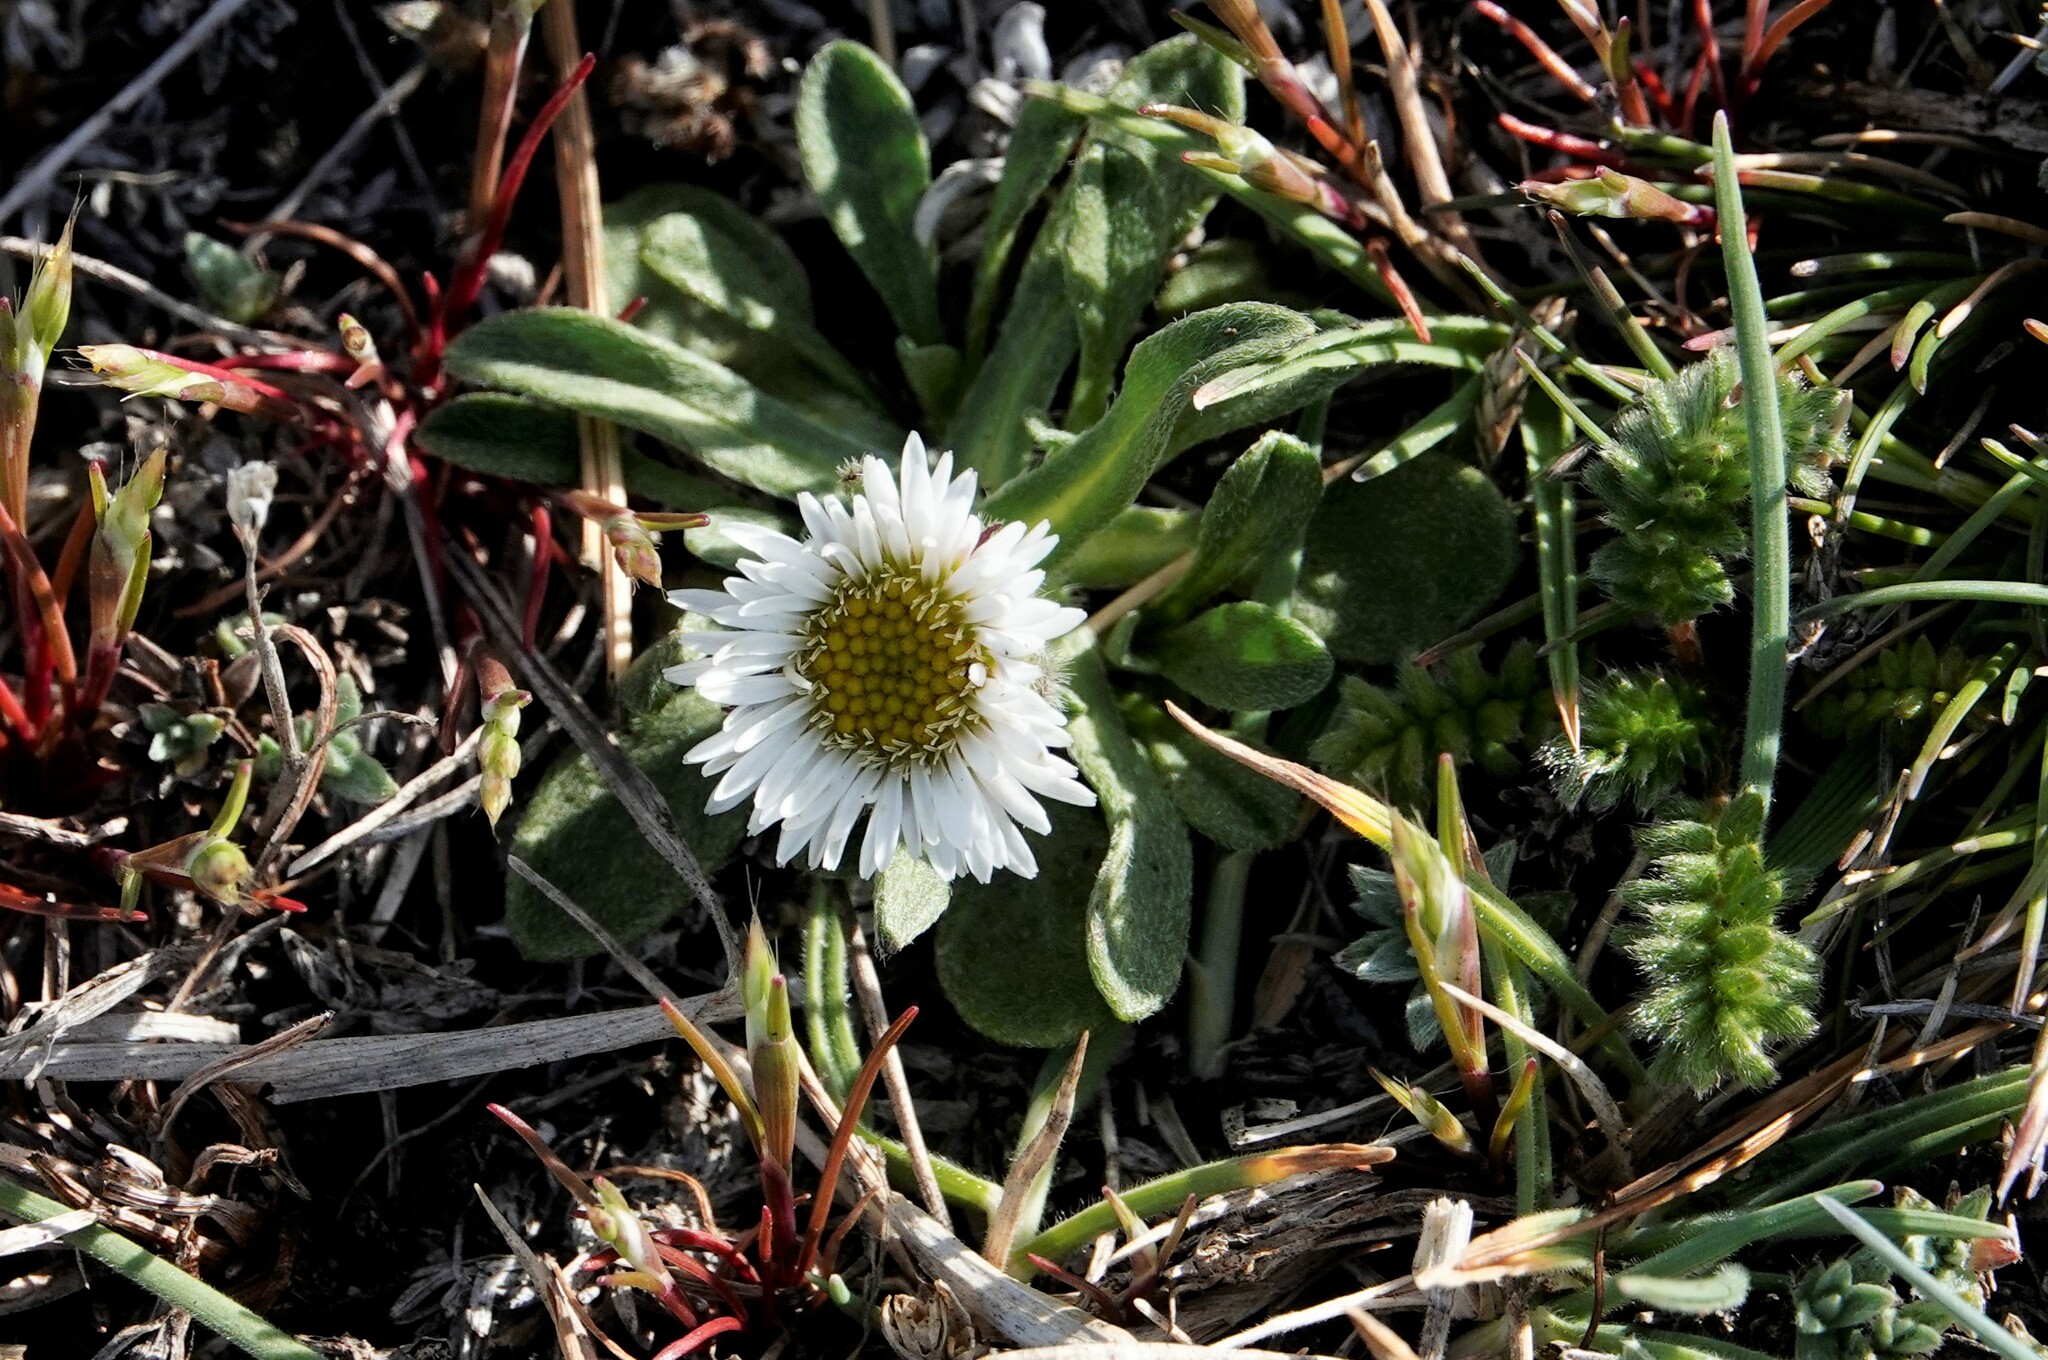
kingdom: Plantae
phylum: Tracheophyta
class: Magnoliopsida
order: Asterales
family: Asteraceae
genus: Erigeron
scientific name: Erigeron patagonicus
